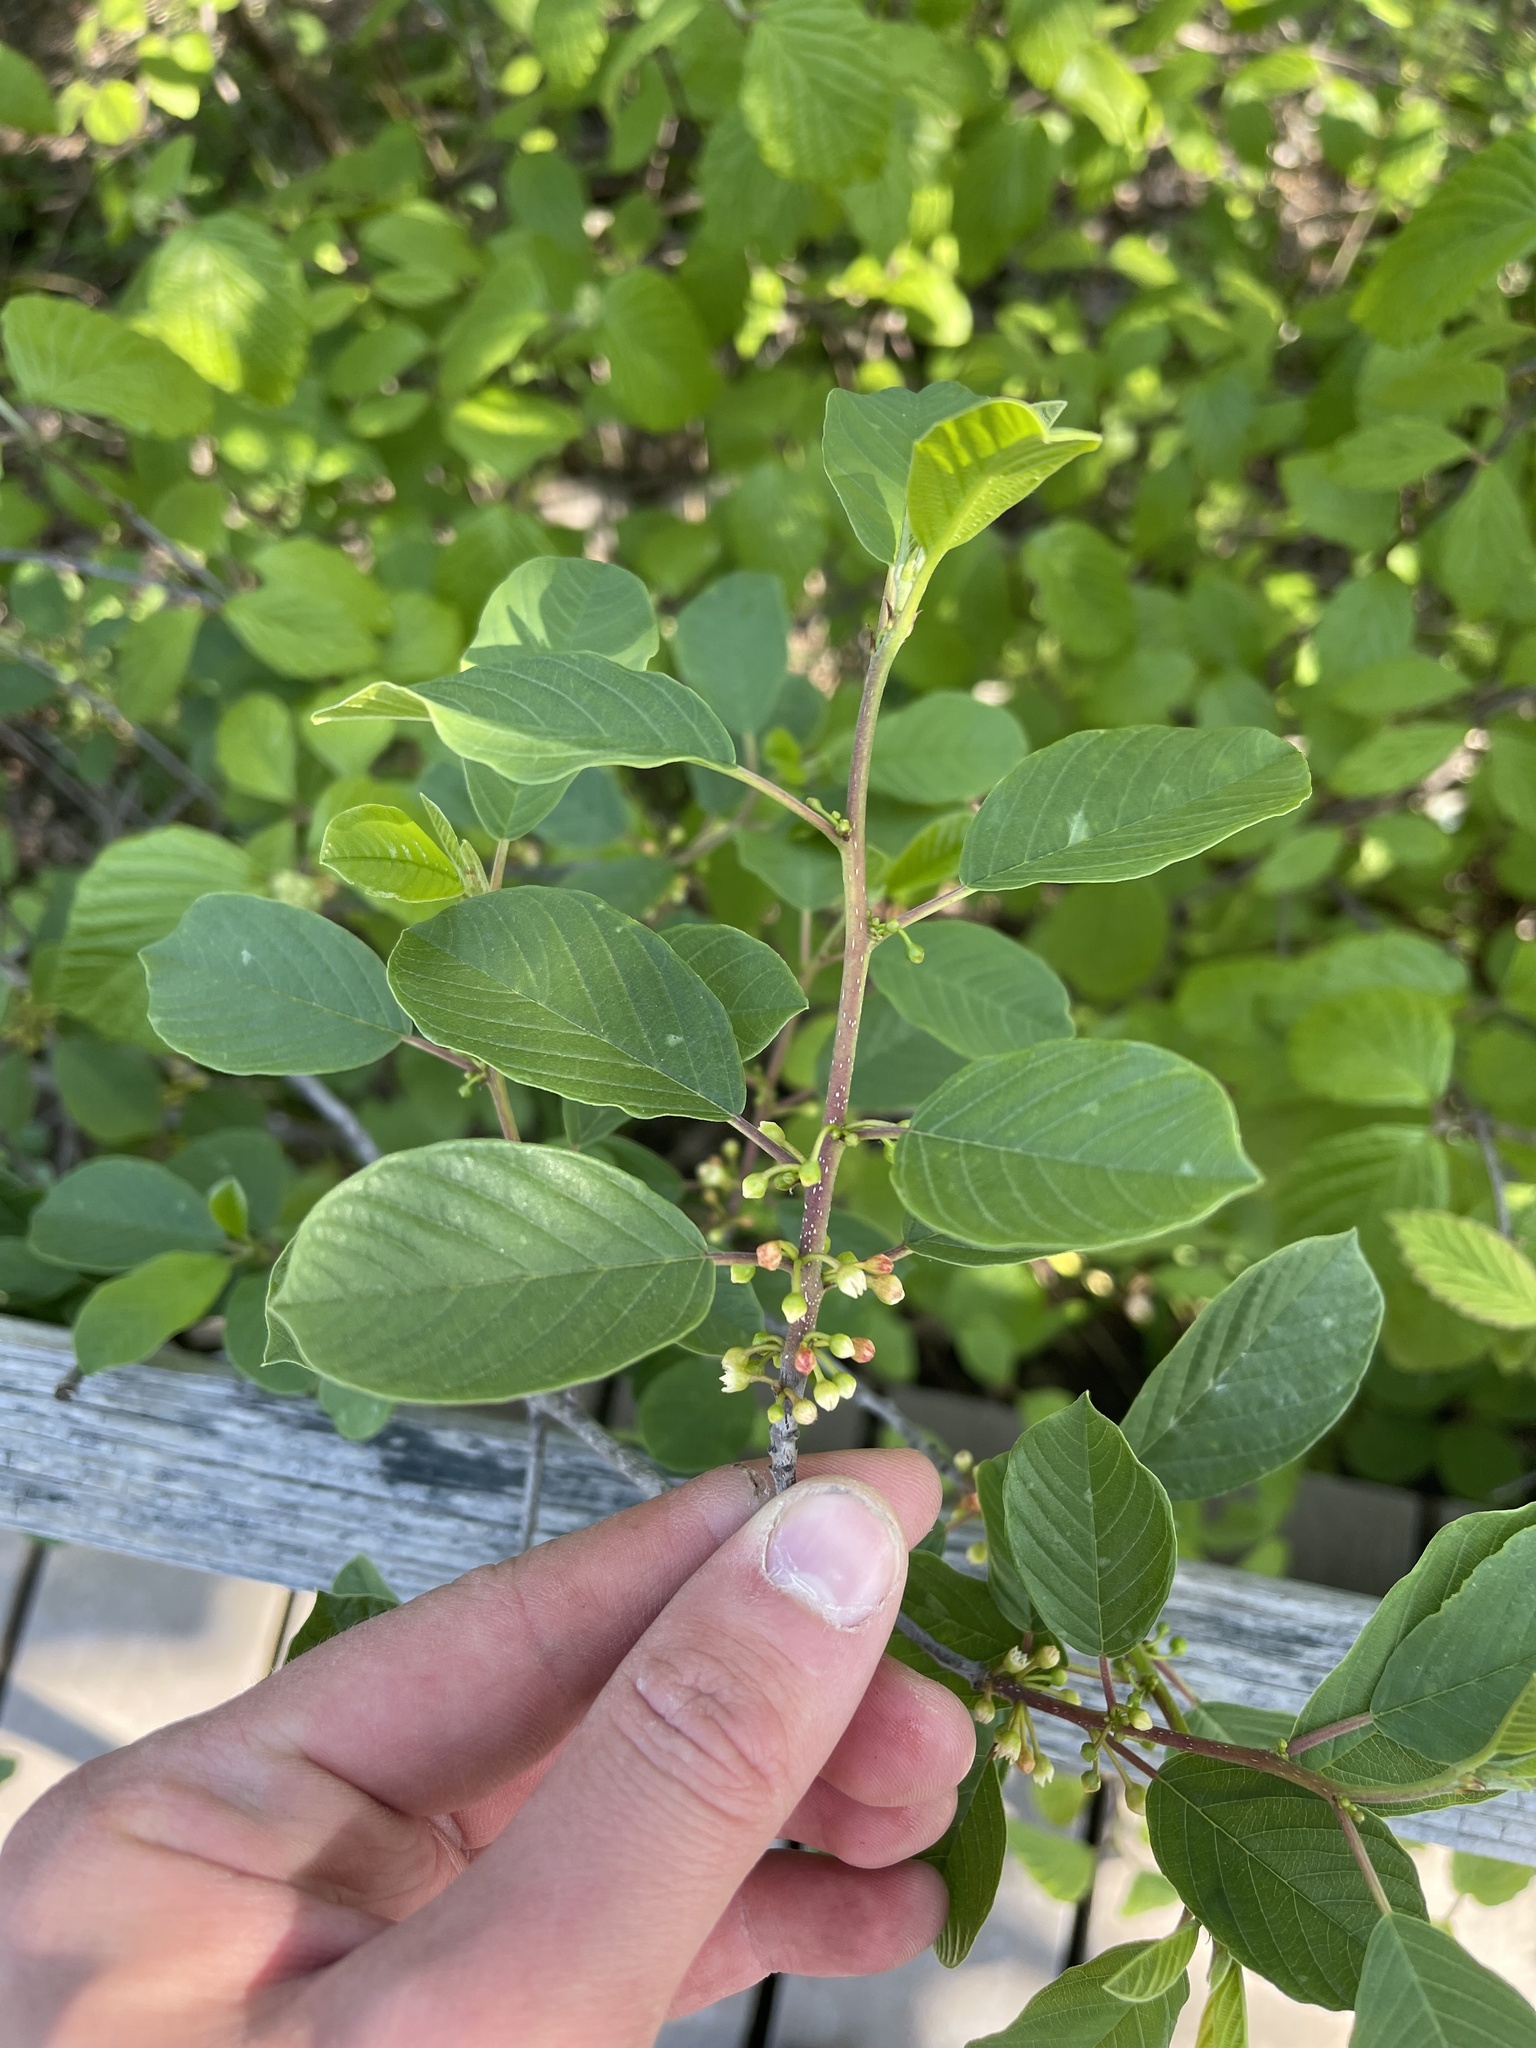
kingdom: Plantae
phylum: Tracheophyta
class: Magnoliopsida
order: Rosales
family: Rhamnaceae
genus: Frangula
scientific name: Frangula alnus
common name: Alder buckthorn
